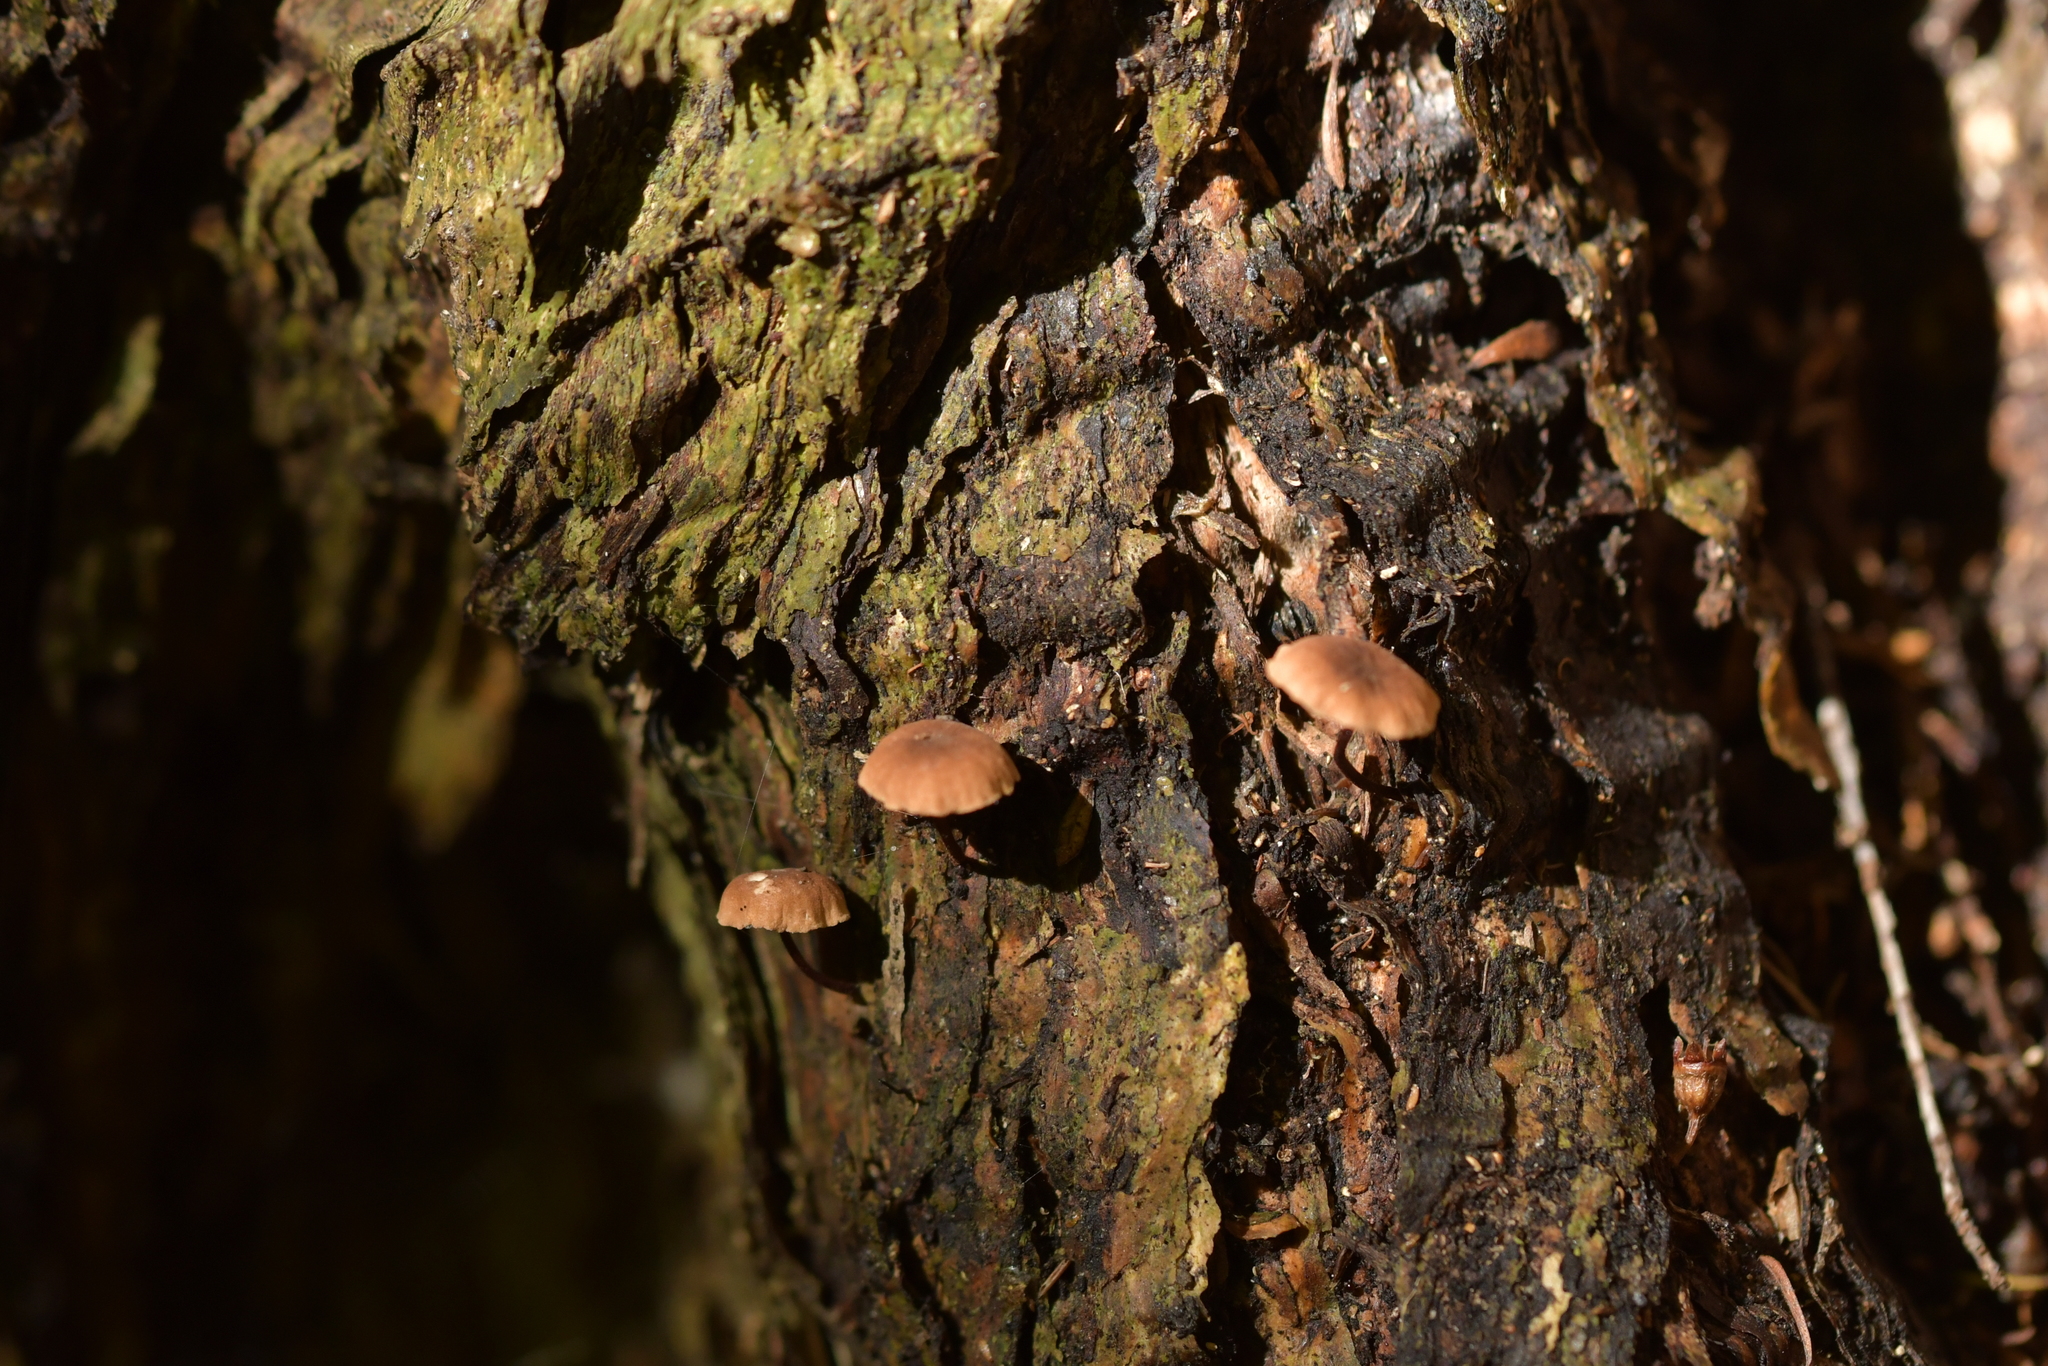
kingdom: Fungi
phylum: Basidiomycota
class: Agaricomycetes
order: Agaricales
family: Omphalotaceae
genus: Mycetinis
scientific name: Mycetinis curraniae
